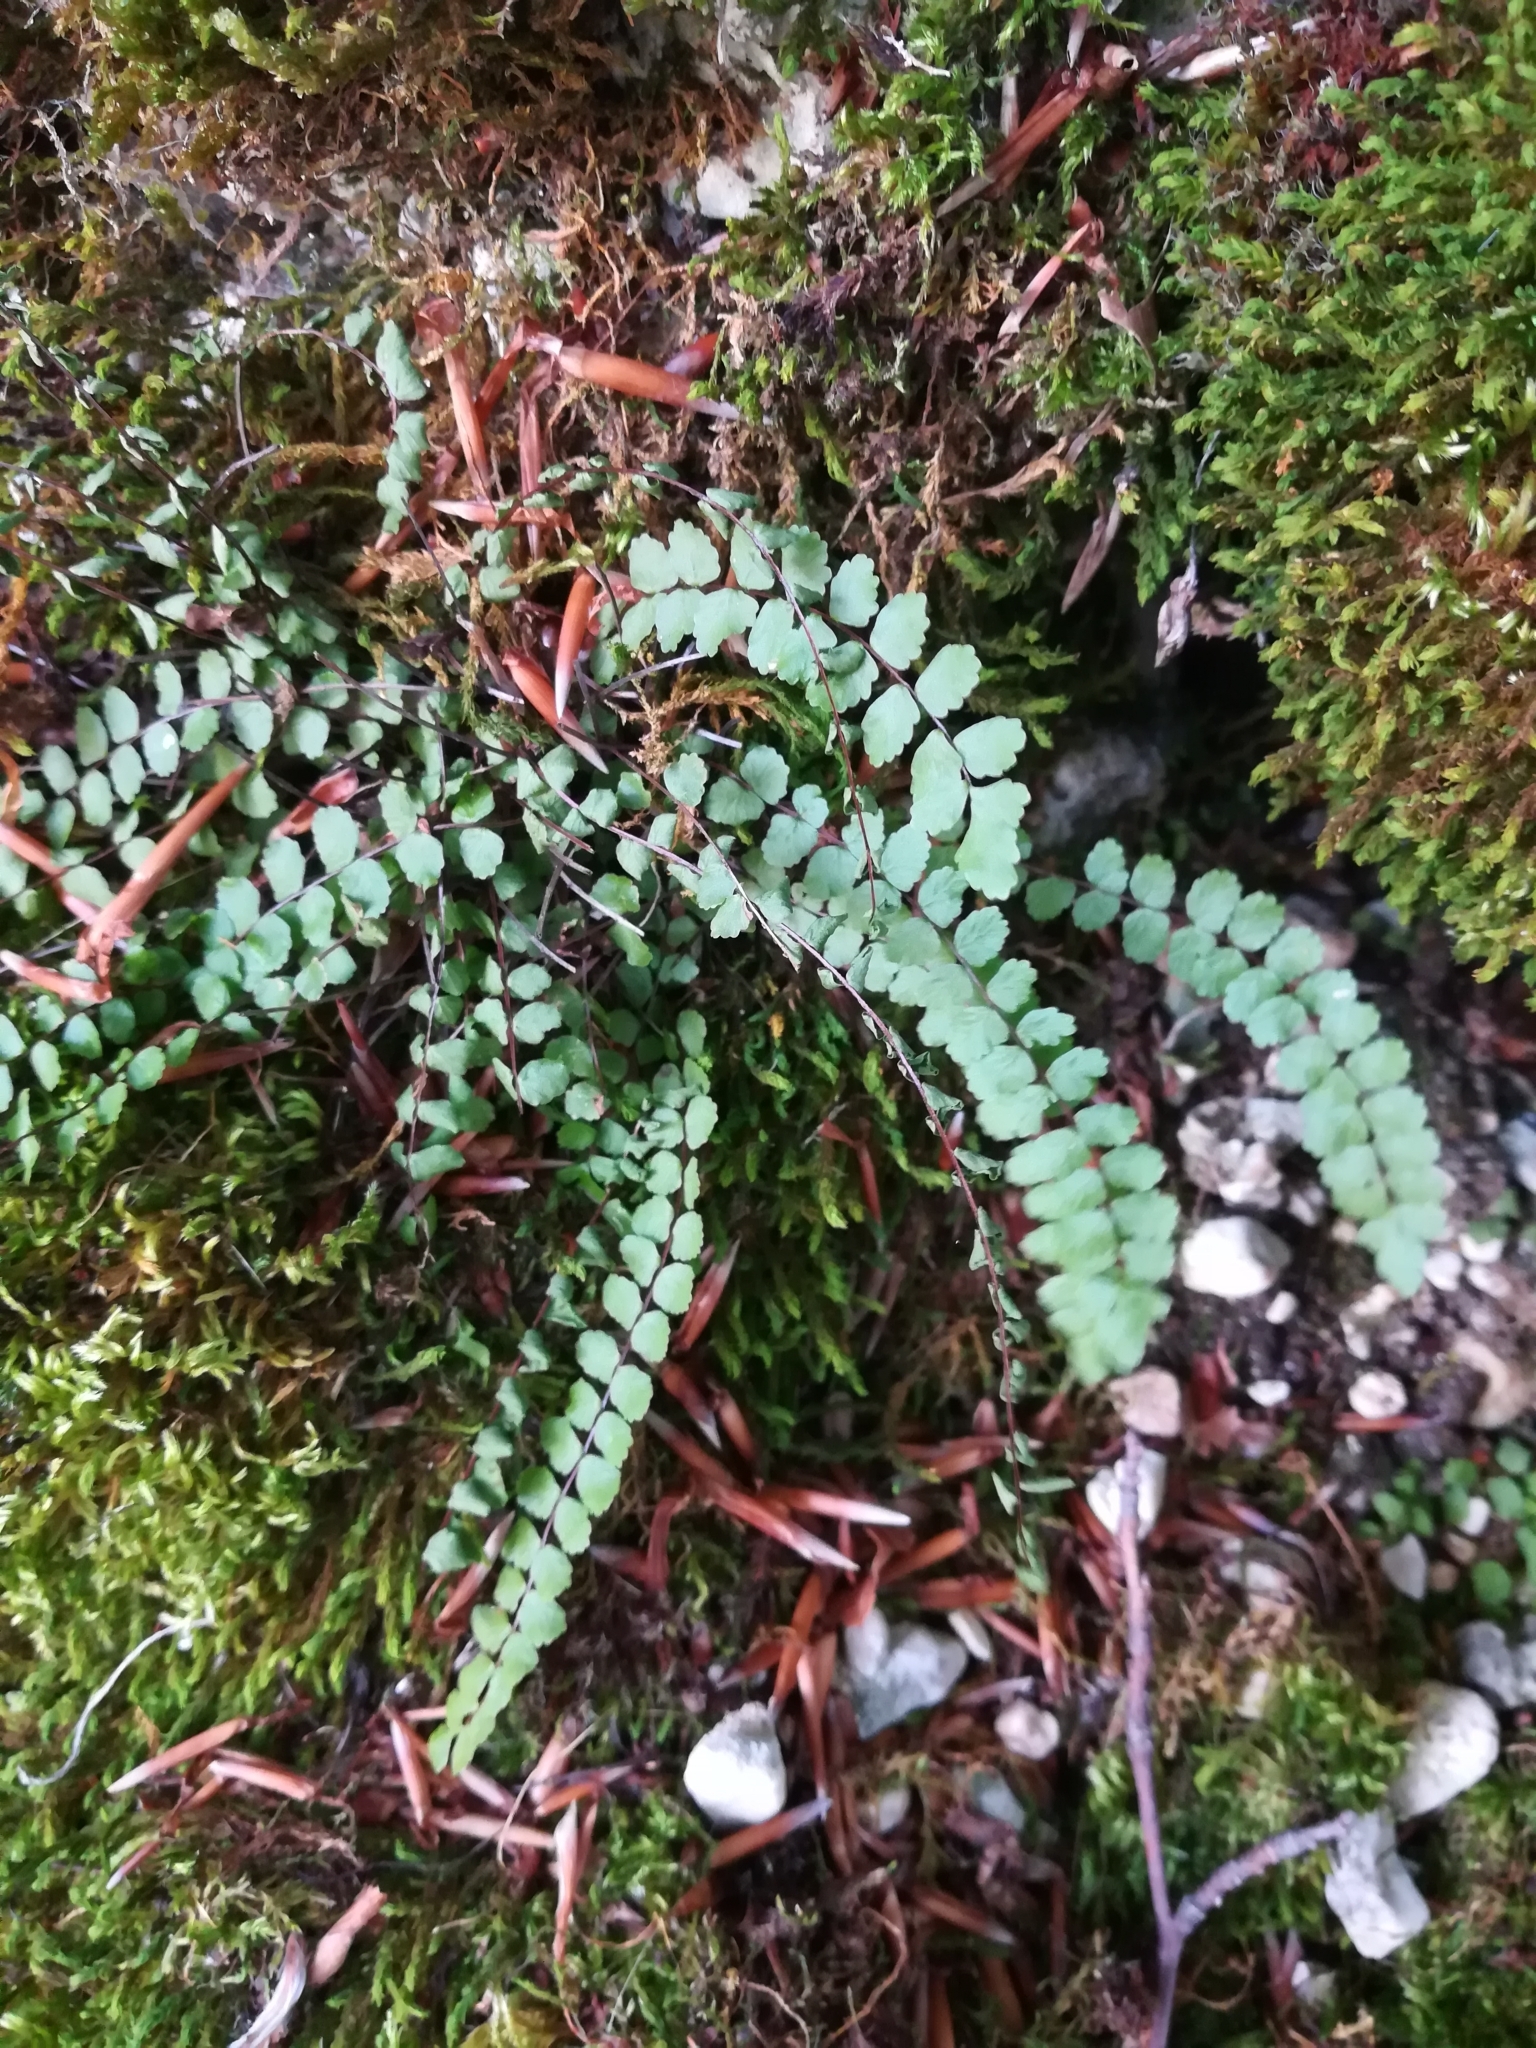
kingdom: Plantae
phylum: Tracheophyta
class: Polypodiopsida
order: Polypodiales
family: Aspleniaceae
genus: Asplenium
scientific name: Asplenium trichomanes
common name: Maidenhair spleenwort
